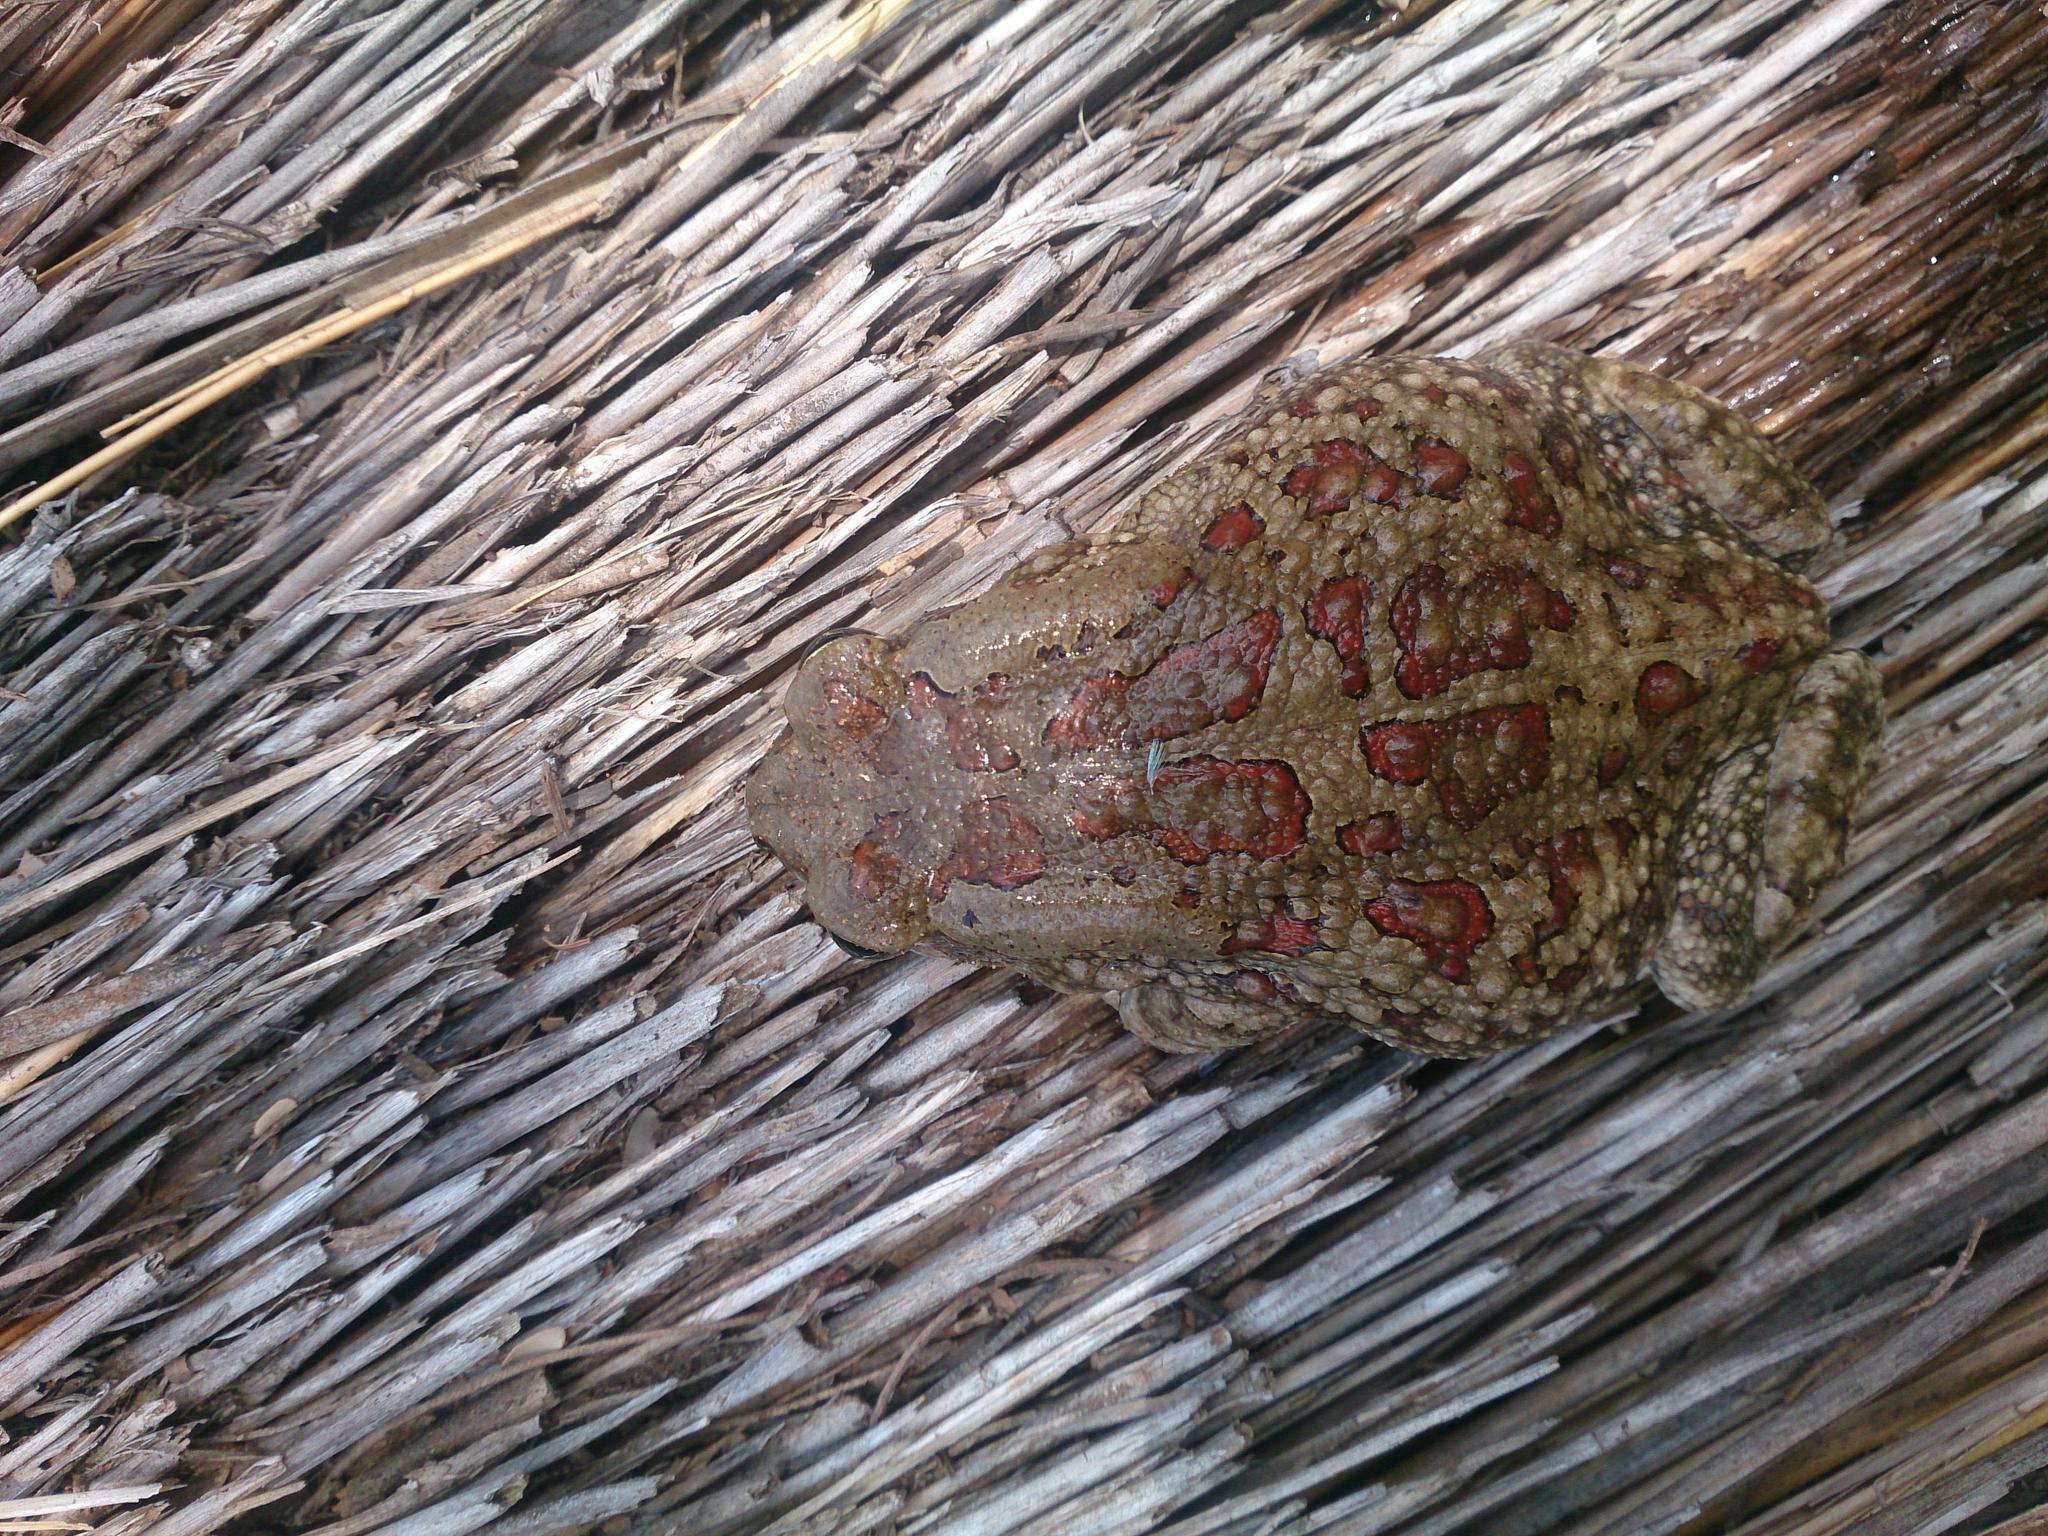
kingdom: Animalia
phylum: Chordata
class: Amphibia
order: Anura
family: Bufonidae
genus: Sclerophrys
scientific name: Sclerophrys garmani
